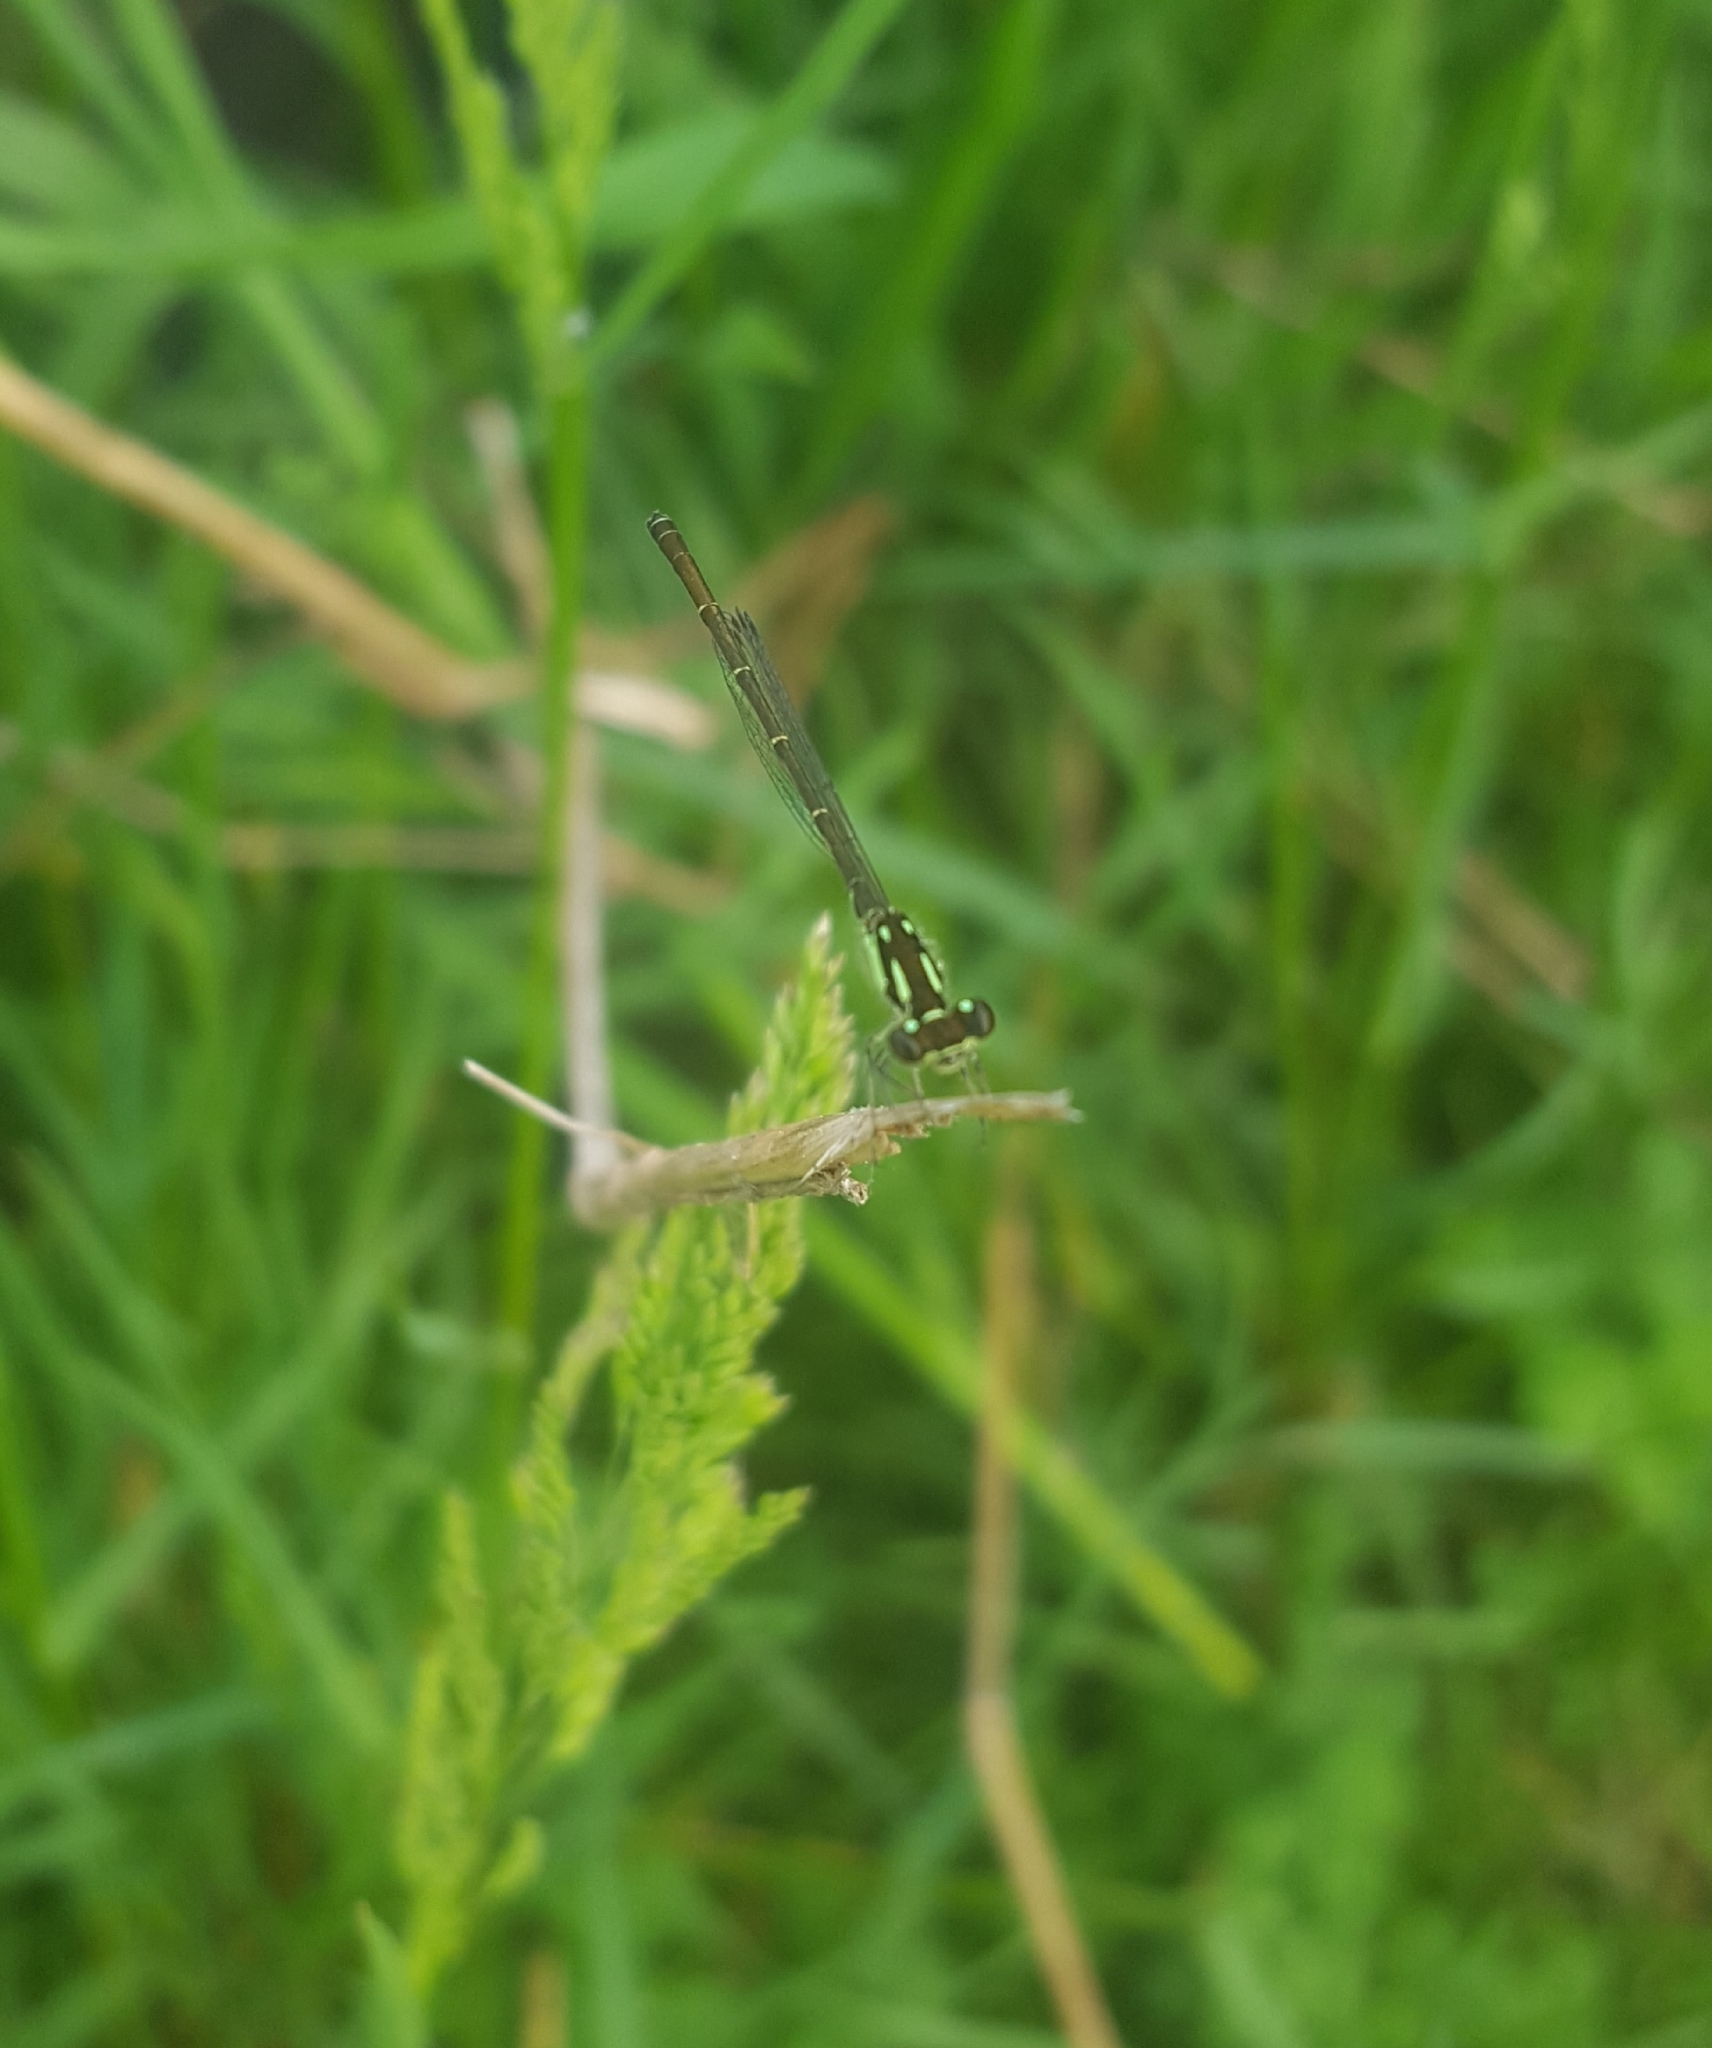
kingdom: Animalia
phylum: Arthropoda
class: Insecta
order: Odonata
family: Coenagrionidae
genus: Ischnura
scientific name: Ischnura posita
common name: Fragile forktail
